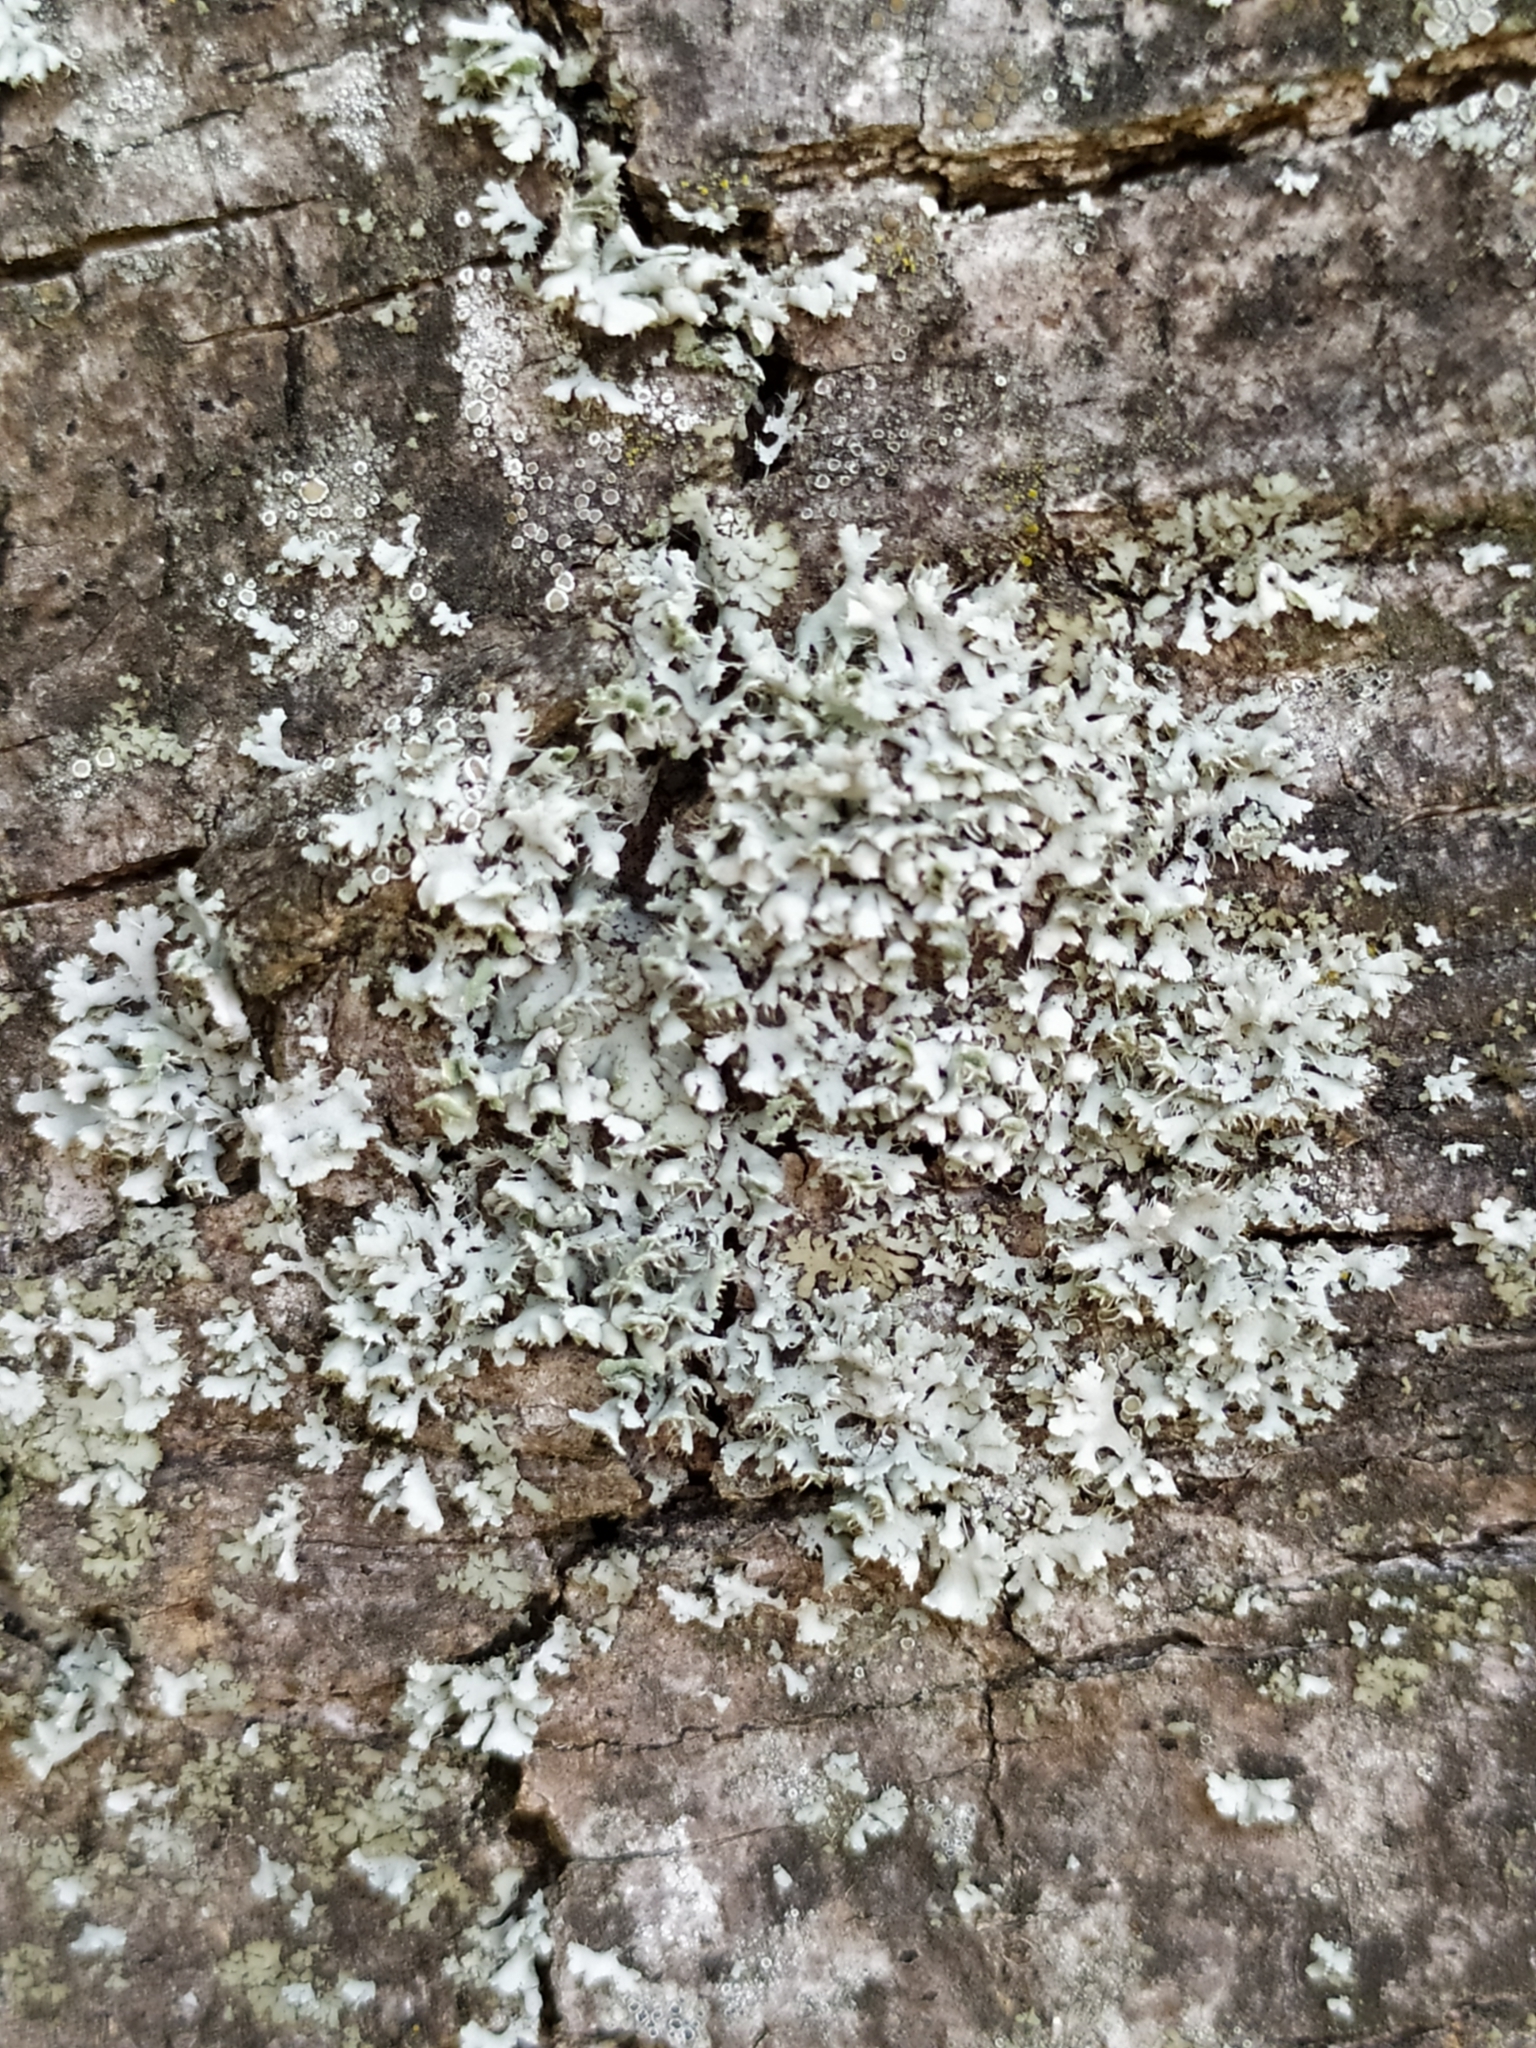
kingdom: Fungi
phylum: Ascomycota
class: Lecanoromycetes
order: Caliciales
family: Physciaceae
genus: Physcia
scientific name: Physcia adscendens
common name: Hooded rosette lichen
